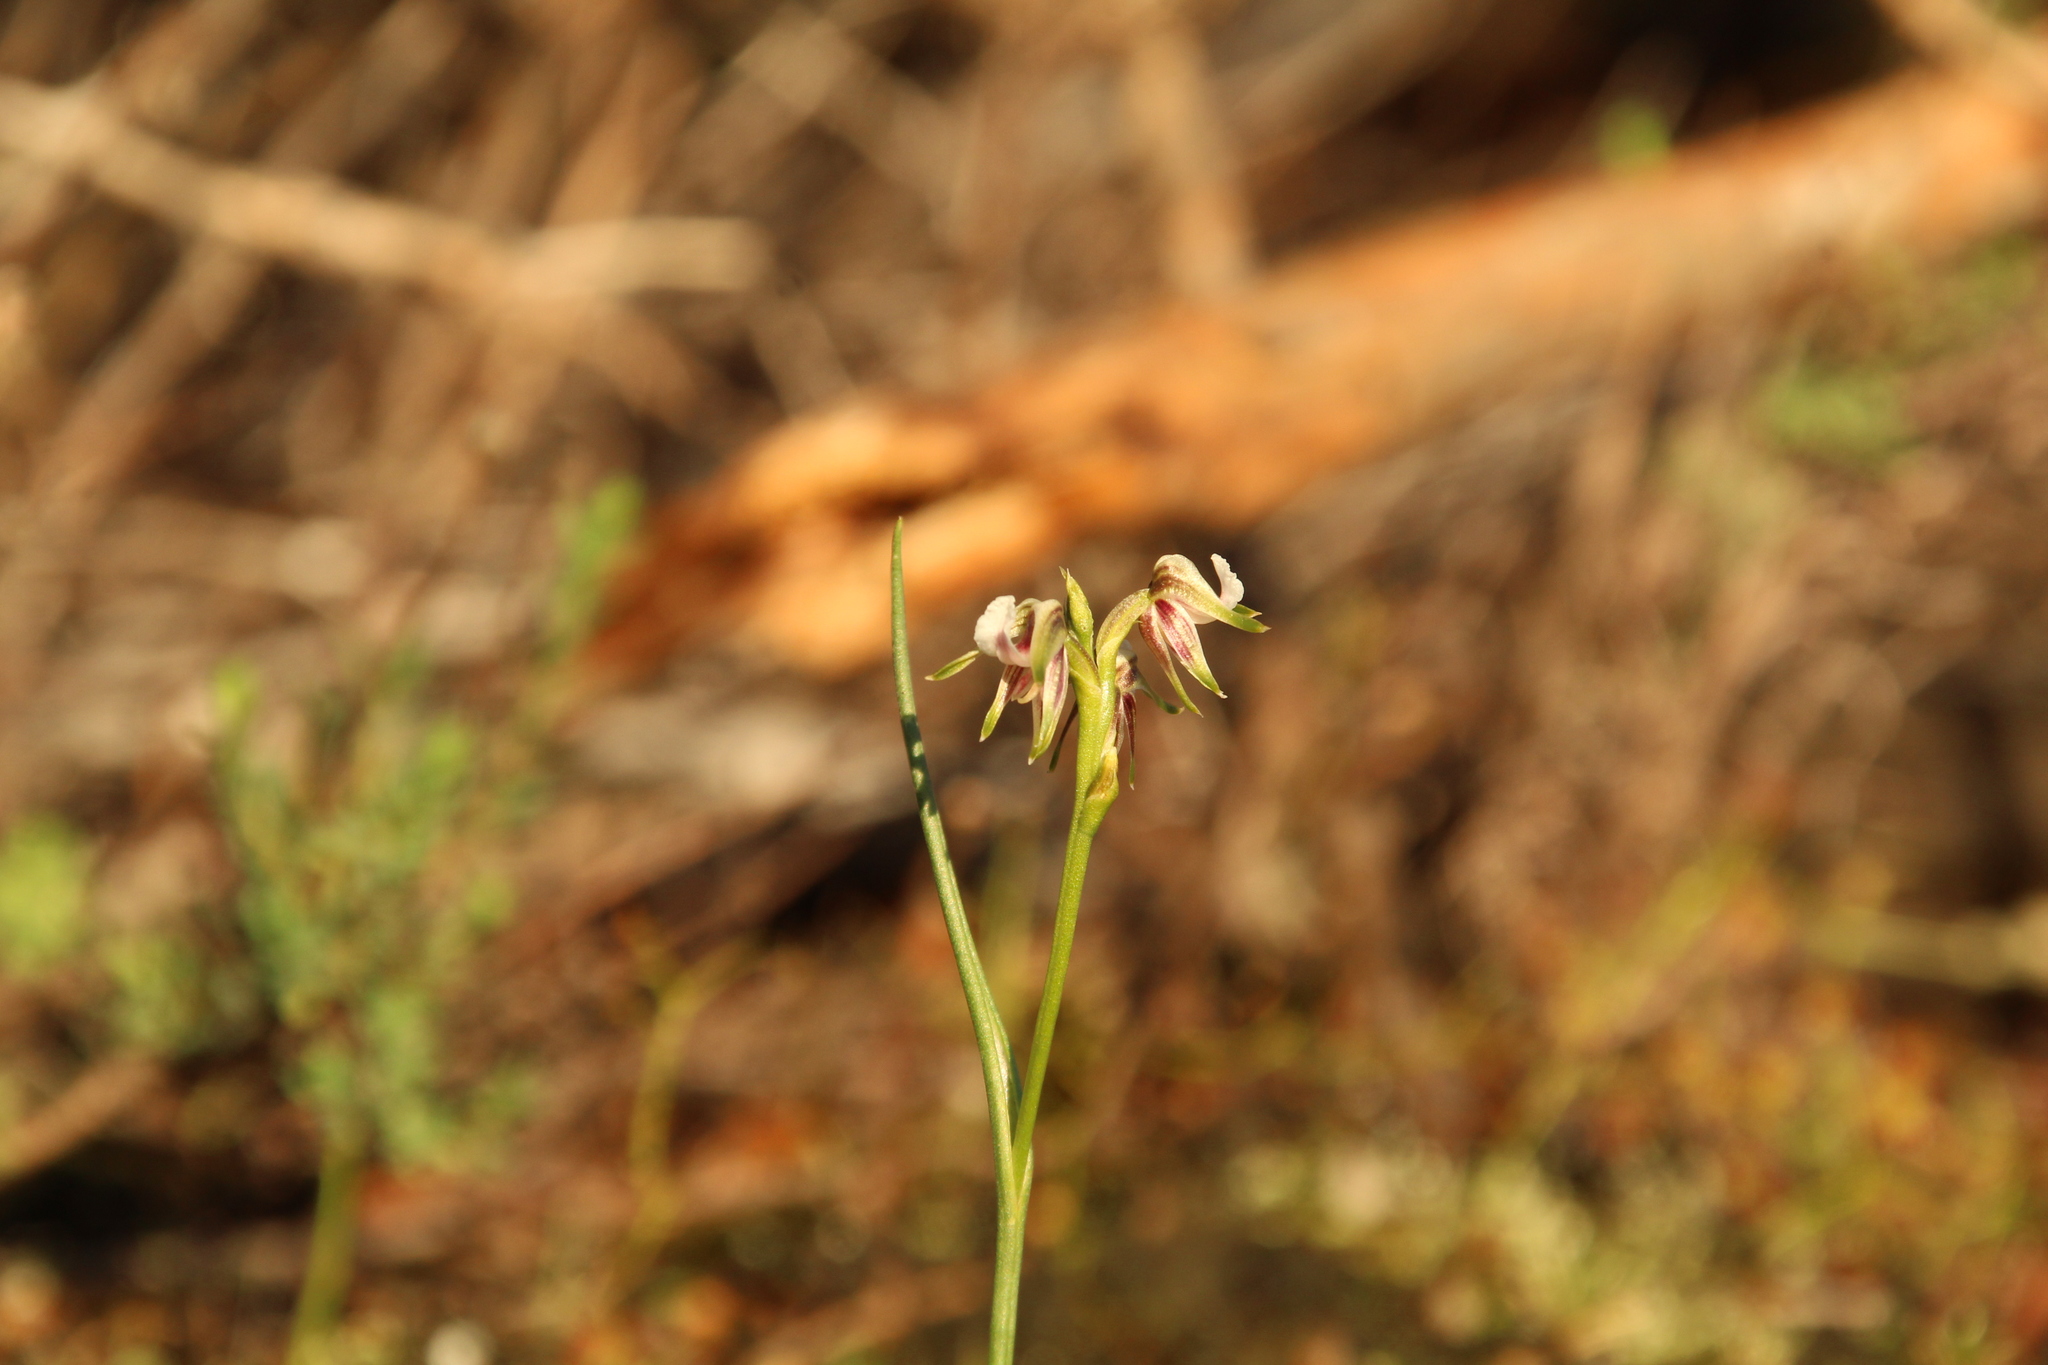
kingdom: Plantae
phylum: Tracheophyta
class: Liliopsida
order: Asparagales
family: Orchidaceae
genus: Prasophyllum
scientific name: Prasophyllum parvifolium
